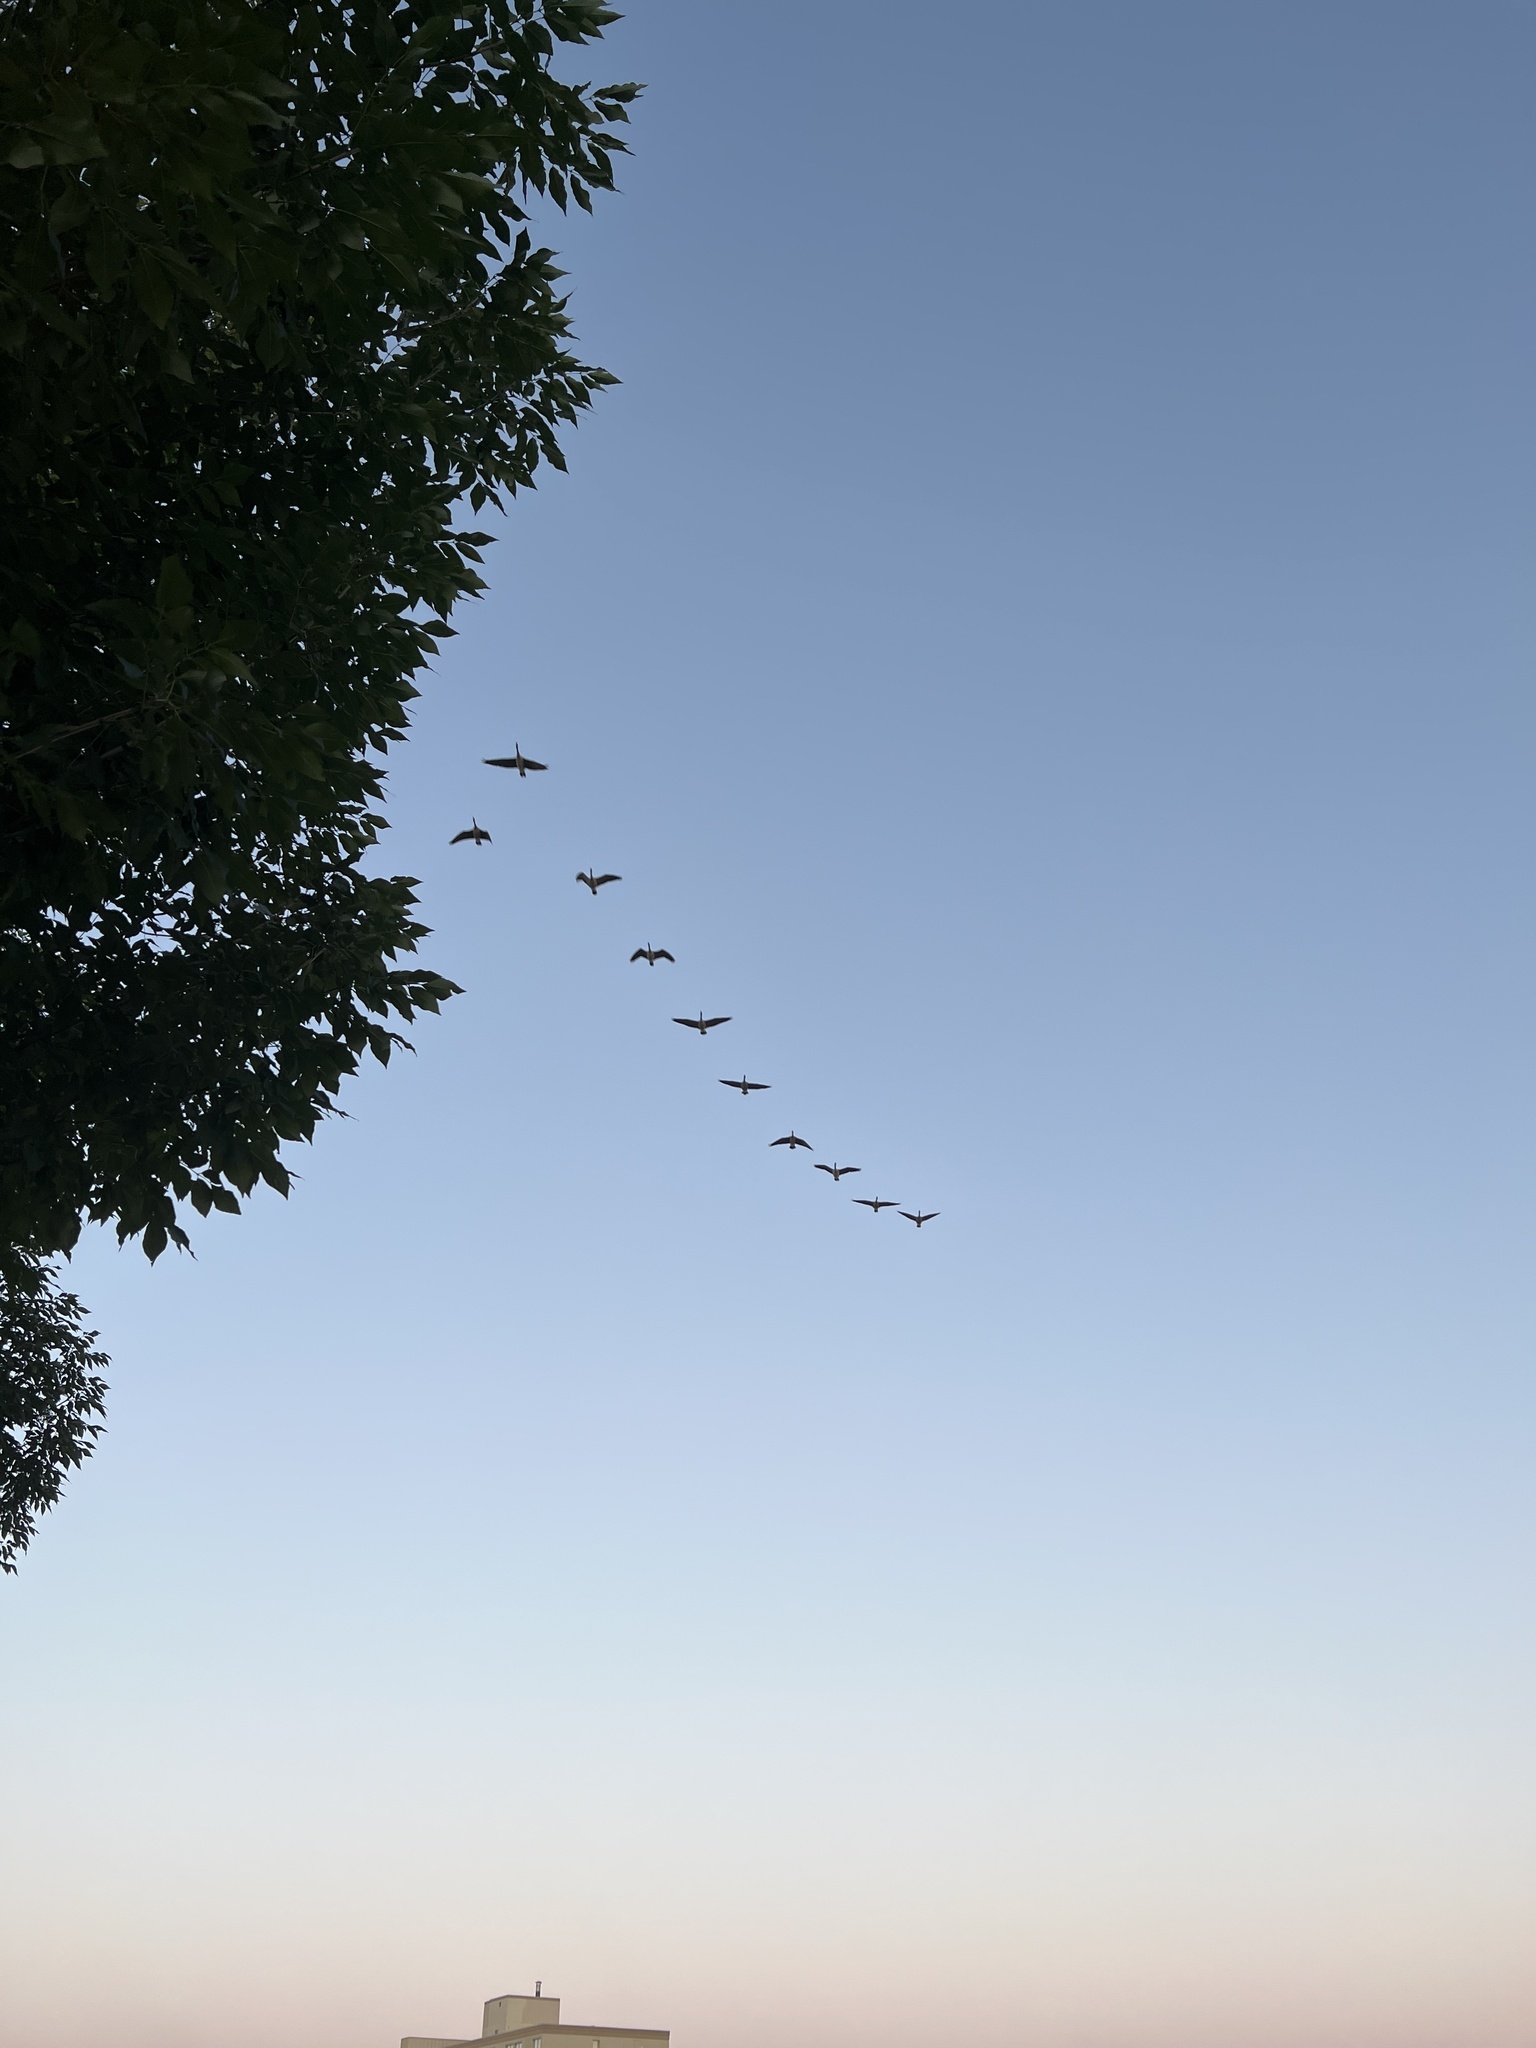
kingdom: Animalia
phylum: Chordata
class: Aves
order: Anseriformes
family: Anatidae
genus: Branta
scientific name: Branta canadensis
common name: Canada goose
